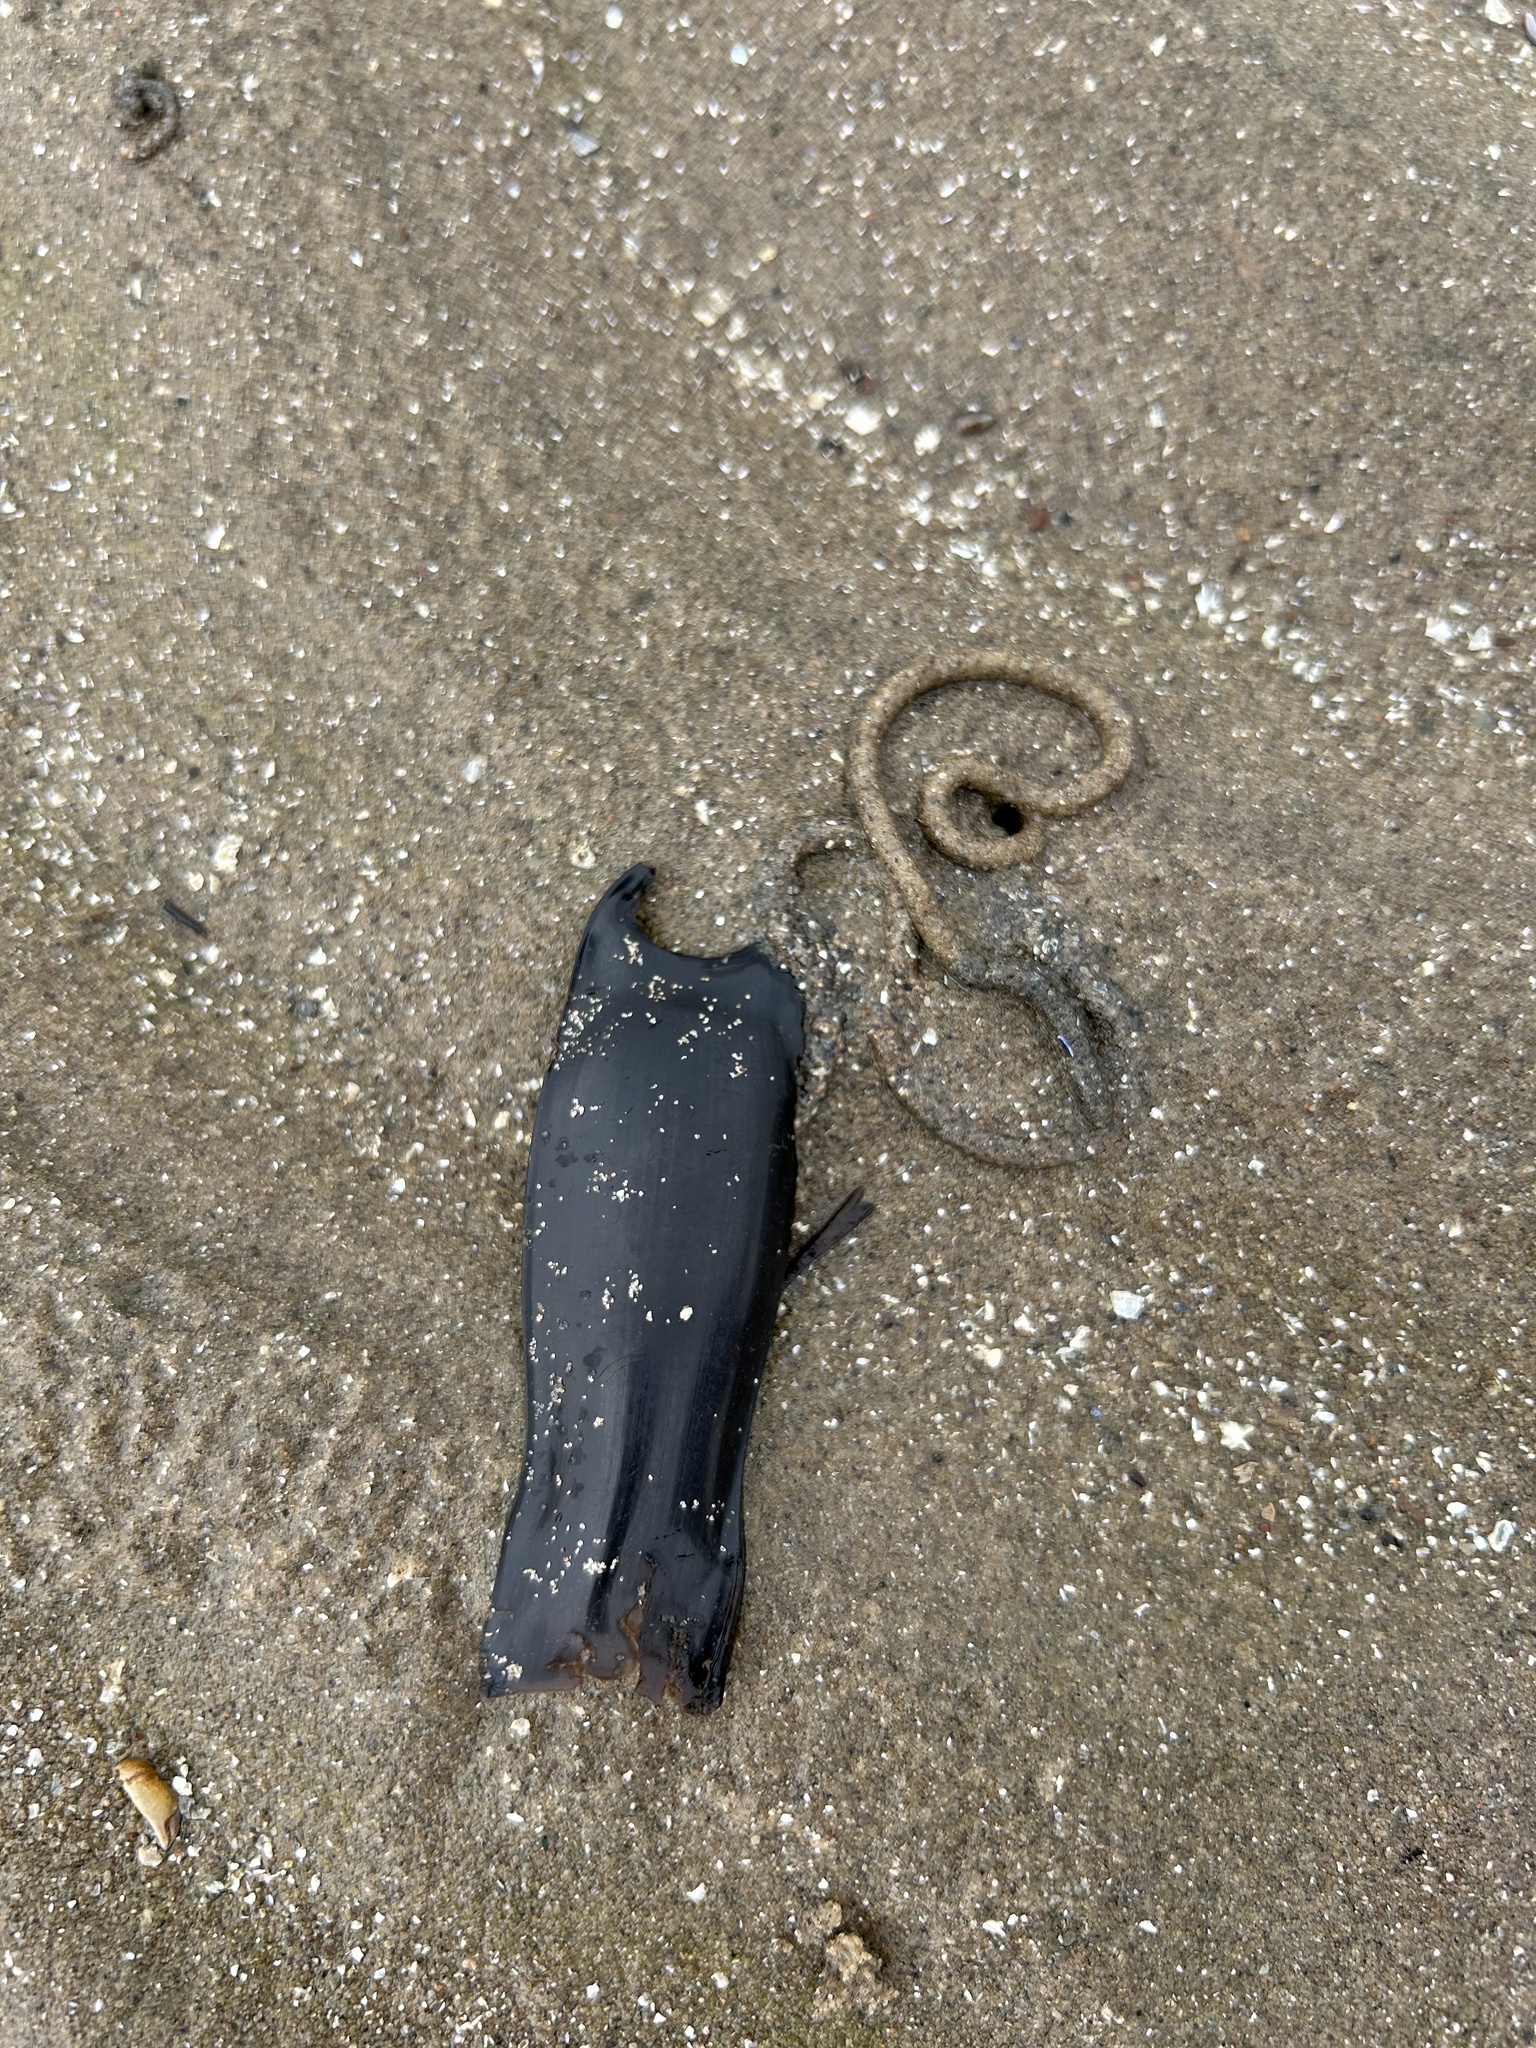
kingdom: Animalia
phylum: Chordata
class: Elasmobranchii
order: Carcharhiniformes
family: Scyliorhinidae
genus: Scyliorhinus
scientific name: Scyliorhinus canicula
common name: Lesser spotted dogfish
